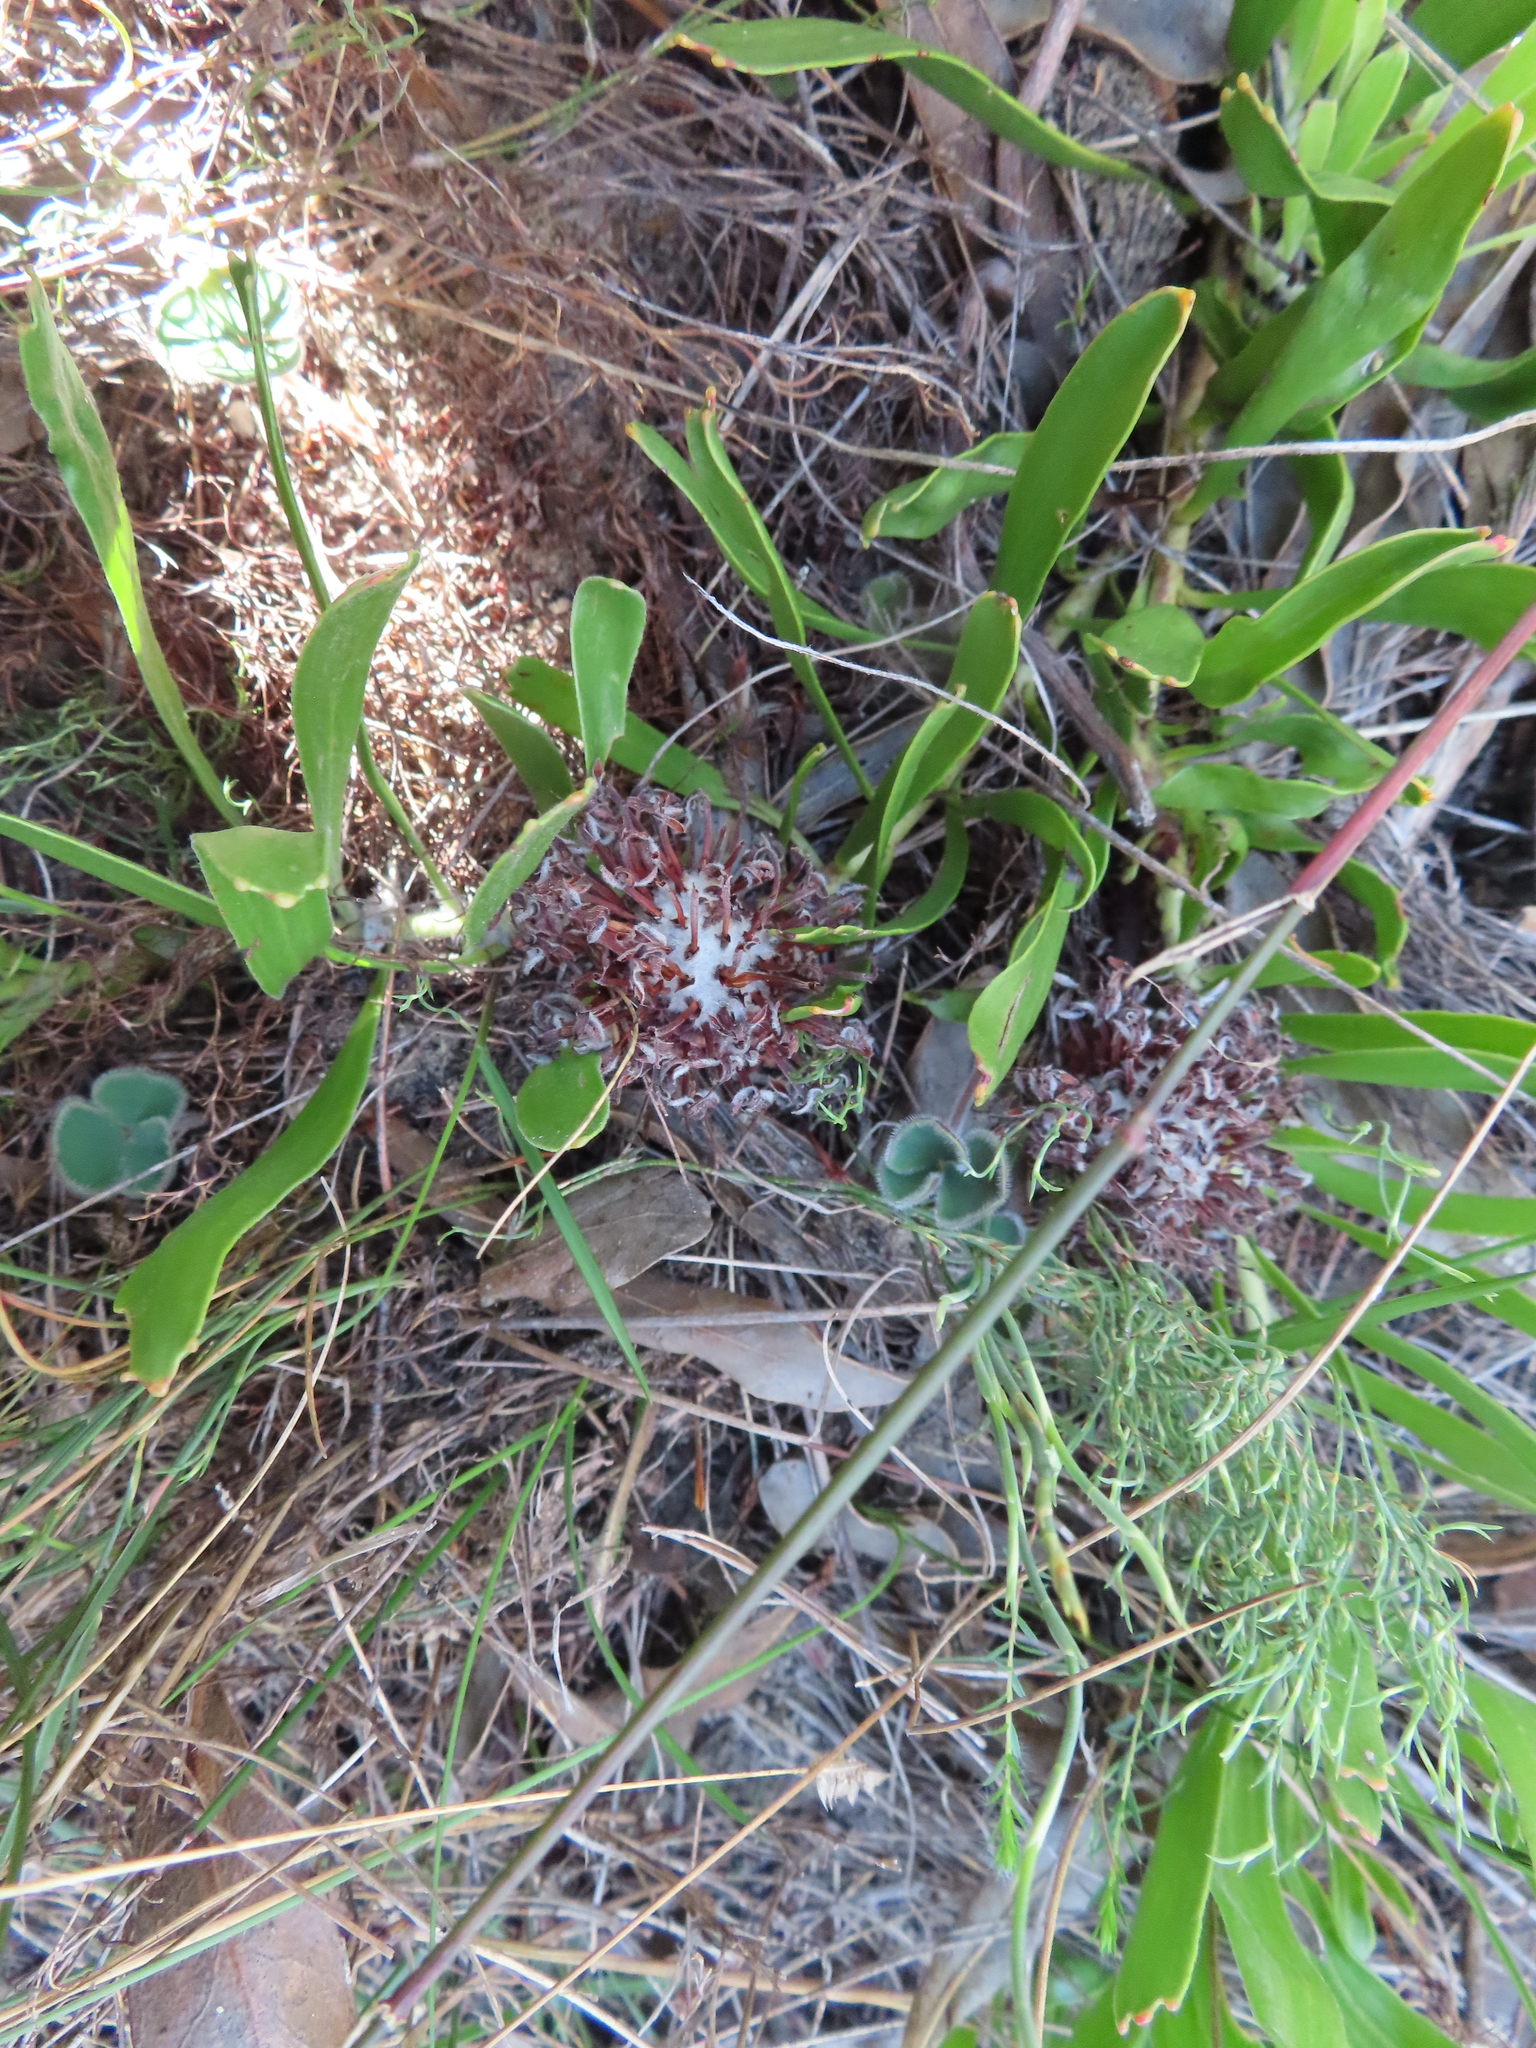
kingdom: Plantae
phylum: Tracheophyta
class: Magnoliopsida
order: Proteales
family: Proteaceae
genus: Leucospermum
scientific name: Leucospermum hypophyllocarpodendron
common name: Snakestem pincushion
